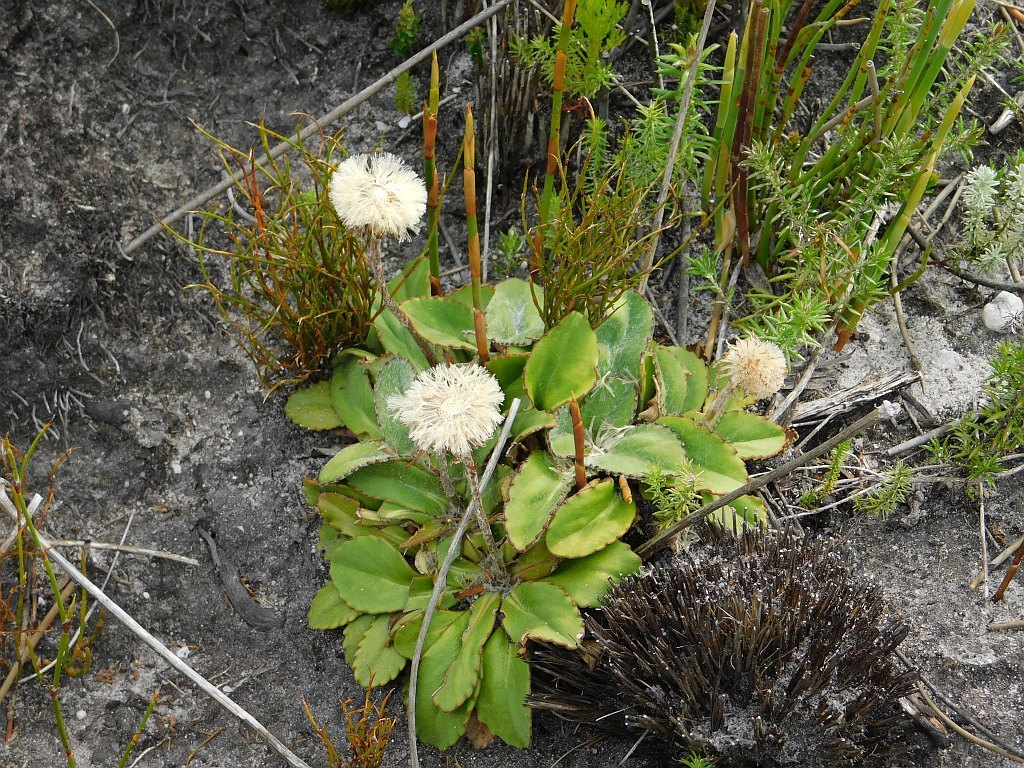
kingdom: Plantae
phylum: Tracheophyta
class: Magnoliopsida
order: Asterales
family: Asteraceae
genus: Zyrphelis
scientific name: Zyrphelis crenata
